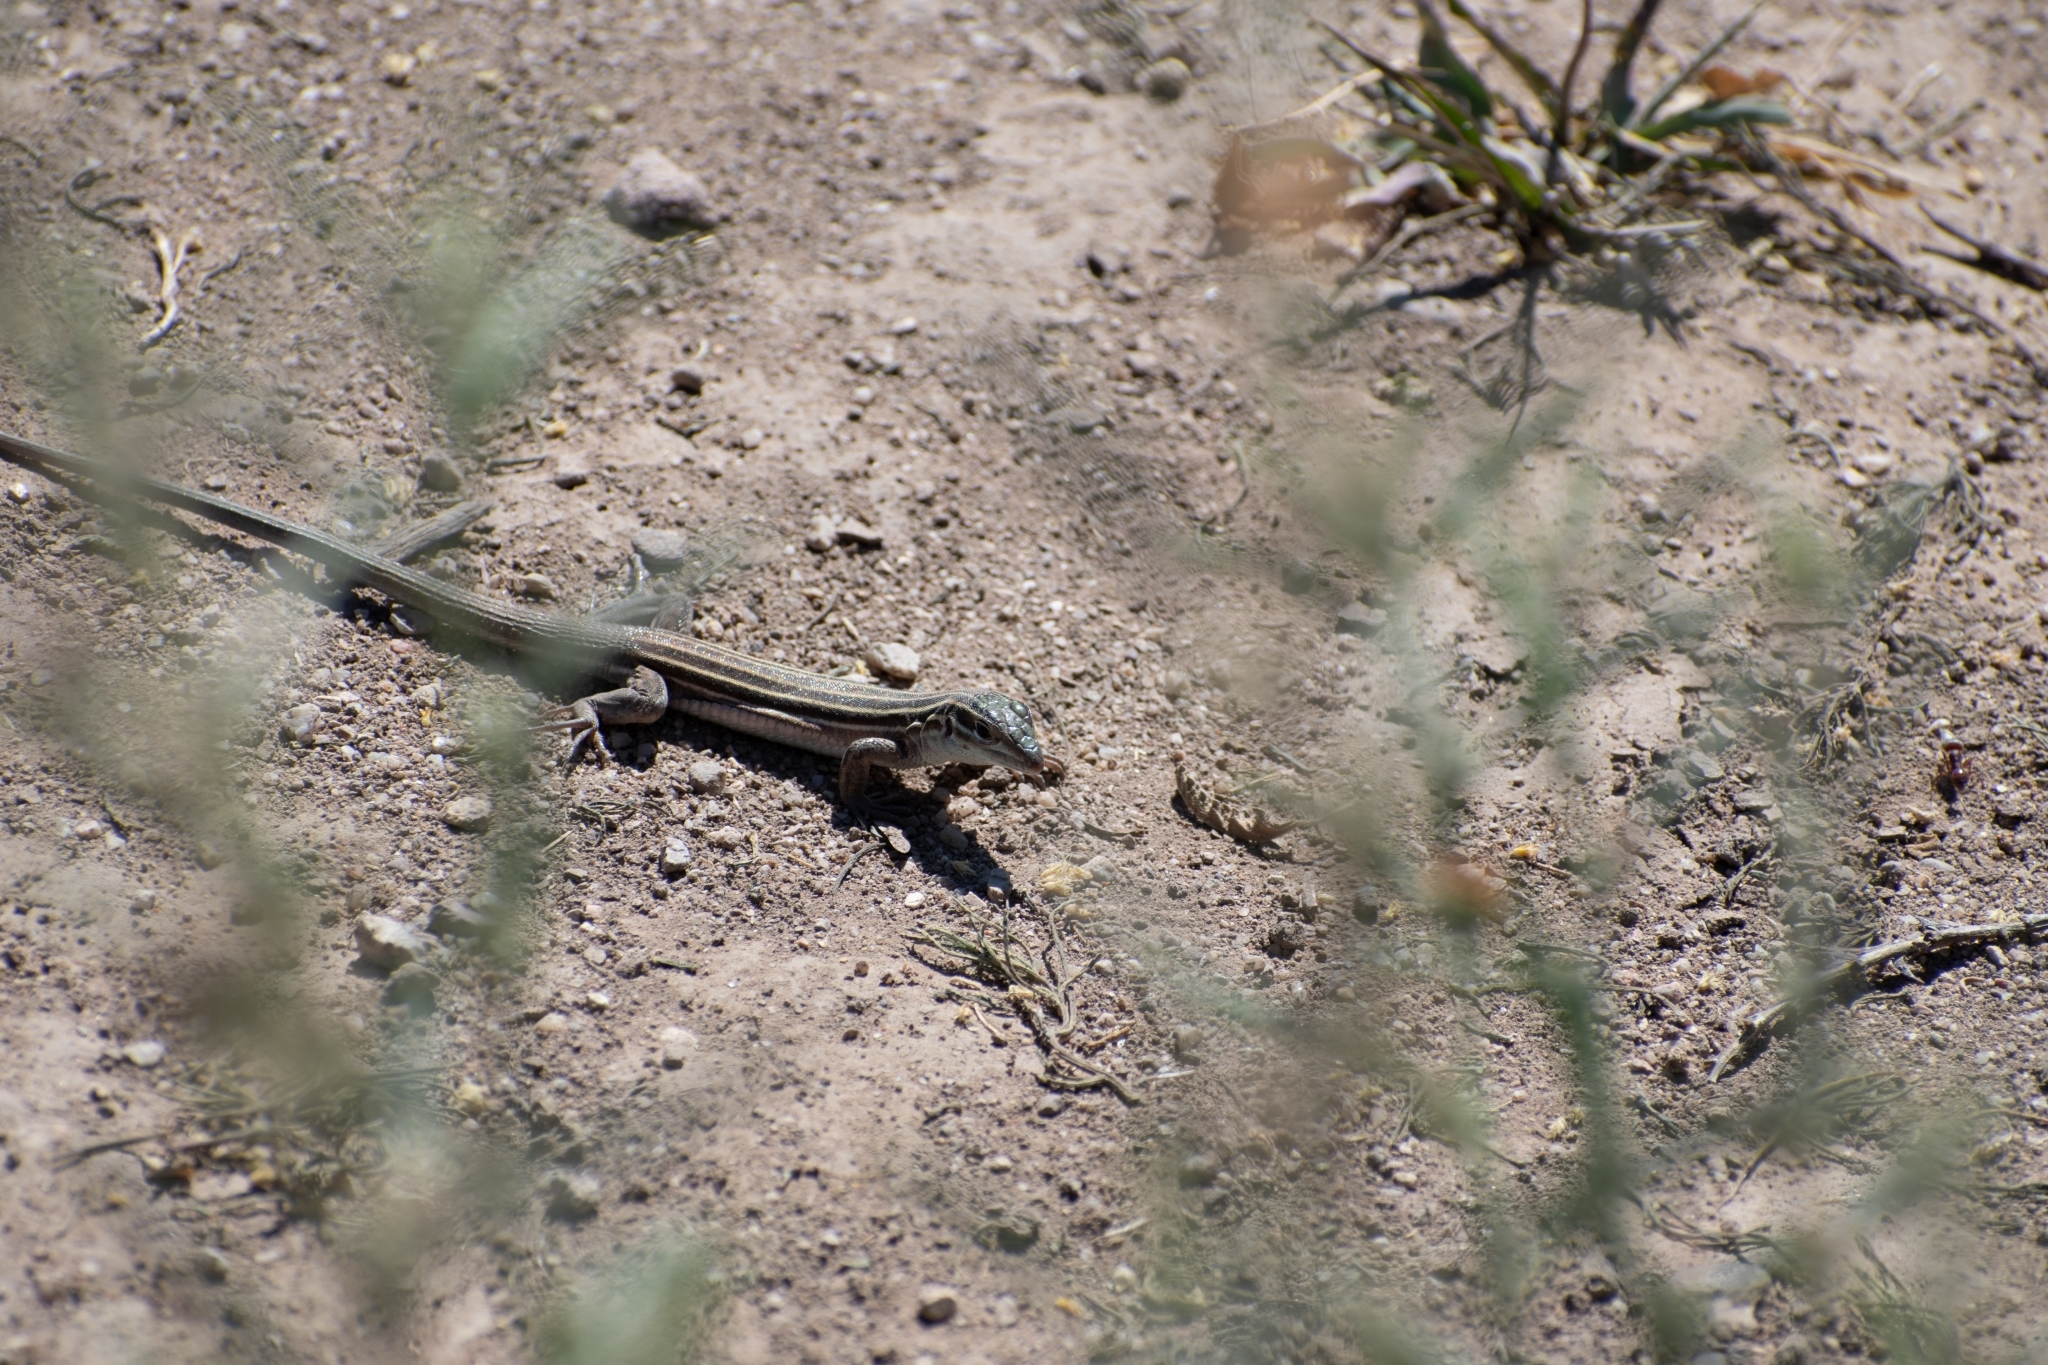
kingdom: Animalia
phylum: Chordata
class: Squamata
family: Teiidae
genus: Aspidoscelis
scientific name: Aspidoscelis uniparens
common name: Desert grassland whiptail
